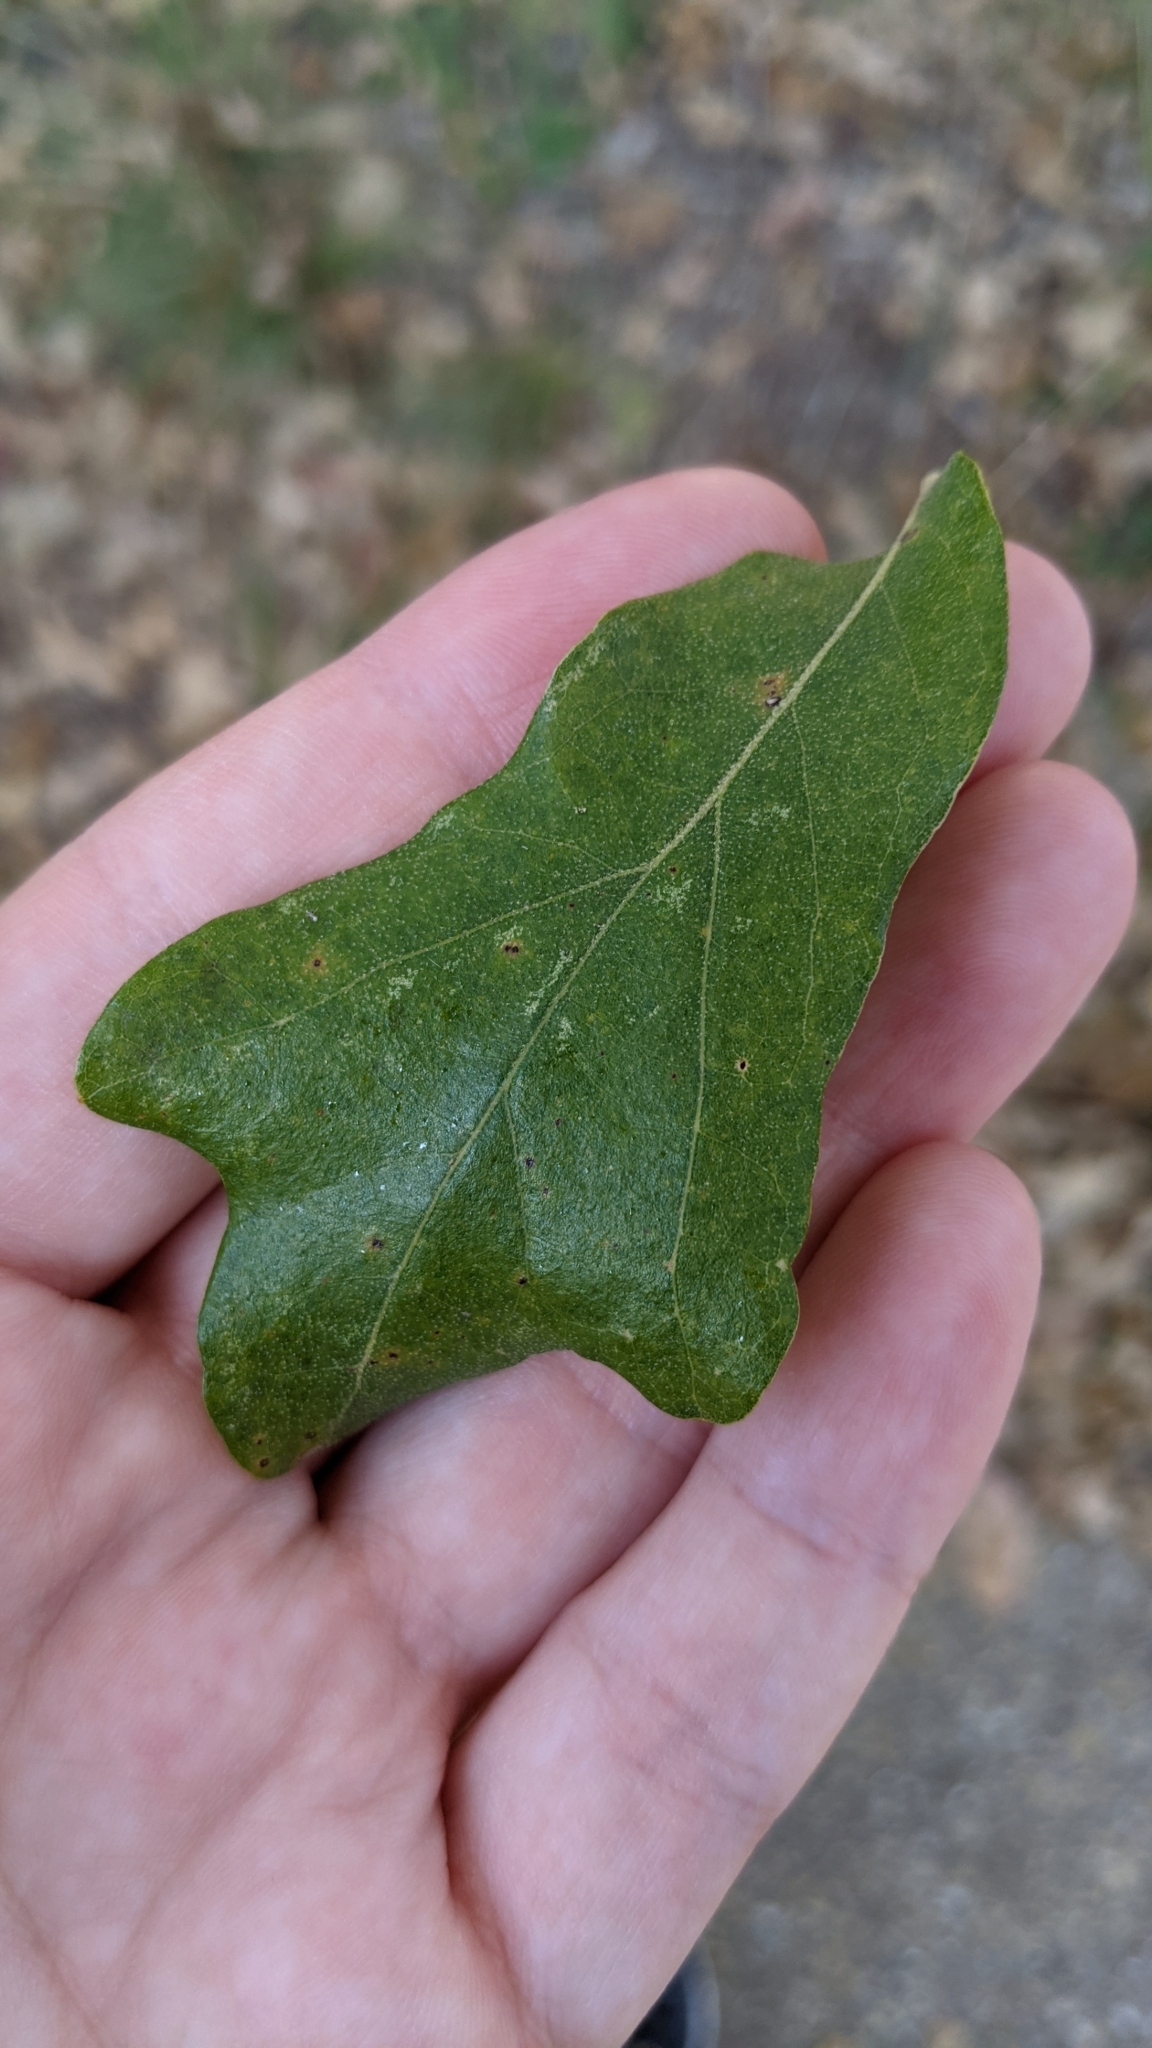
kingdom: Plantae
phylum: Tracheophyta
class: Magnoliopsida
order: Fagales
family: Fagaceae
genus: Quercus
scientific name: Quercus stellata
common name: Post oak
